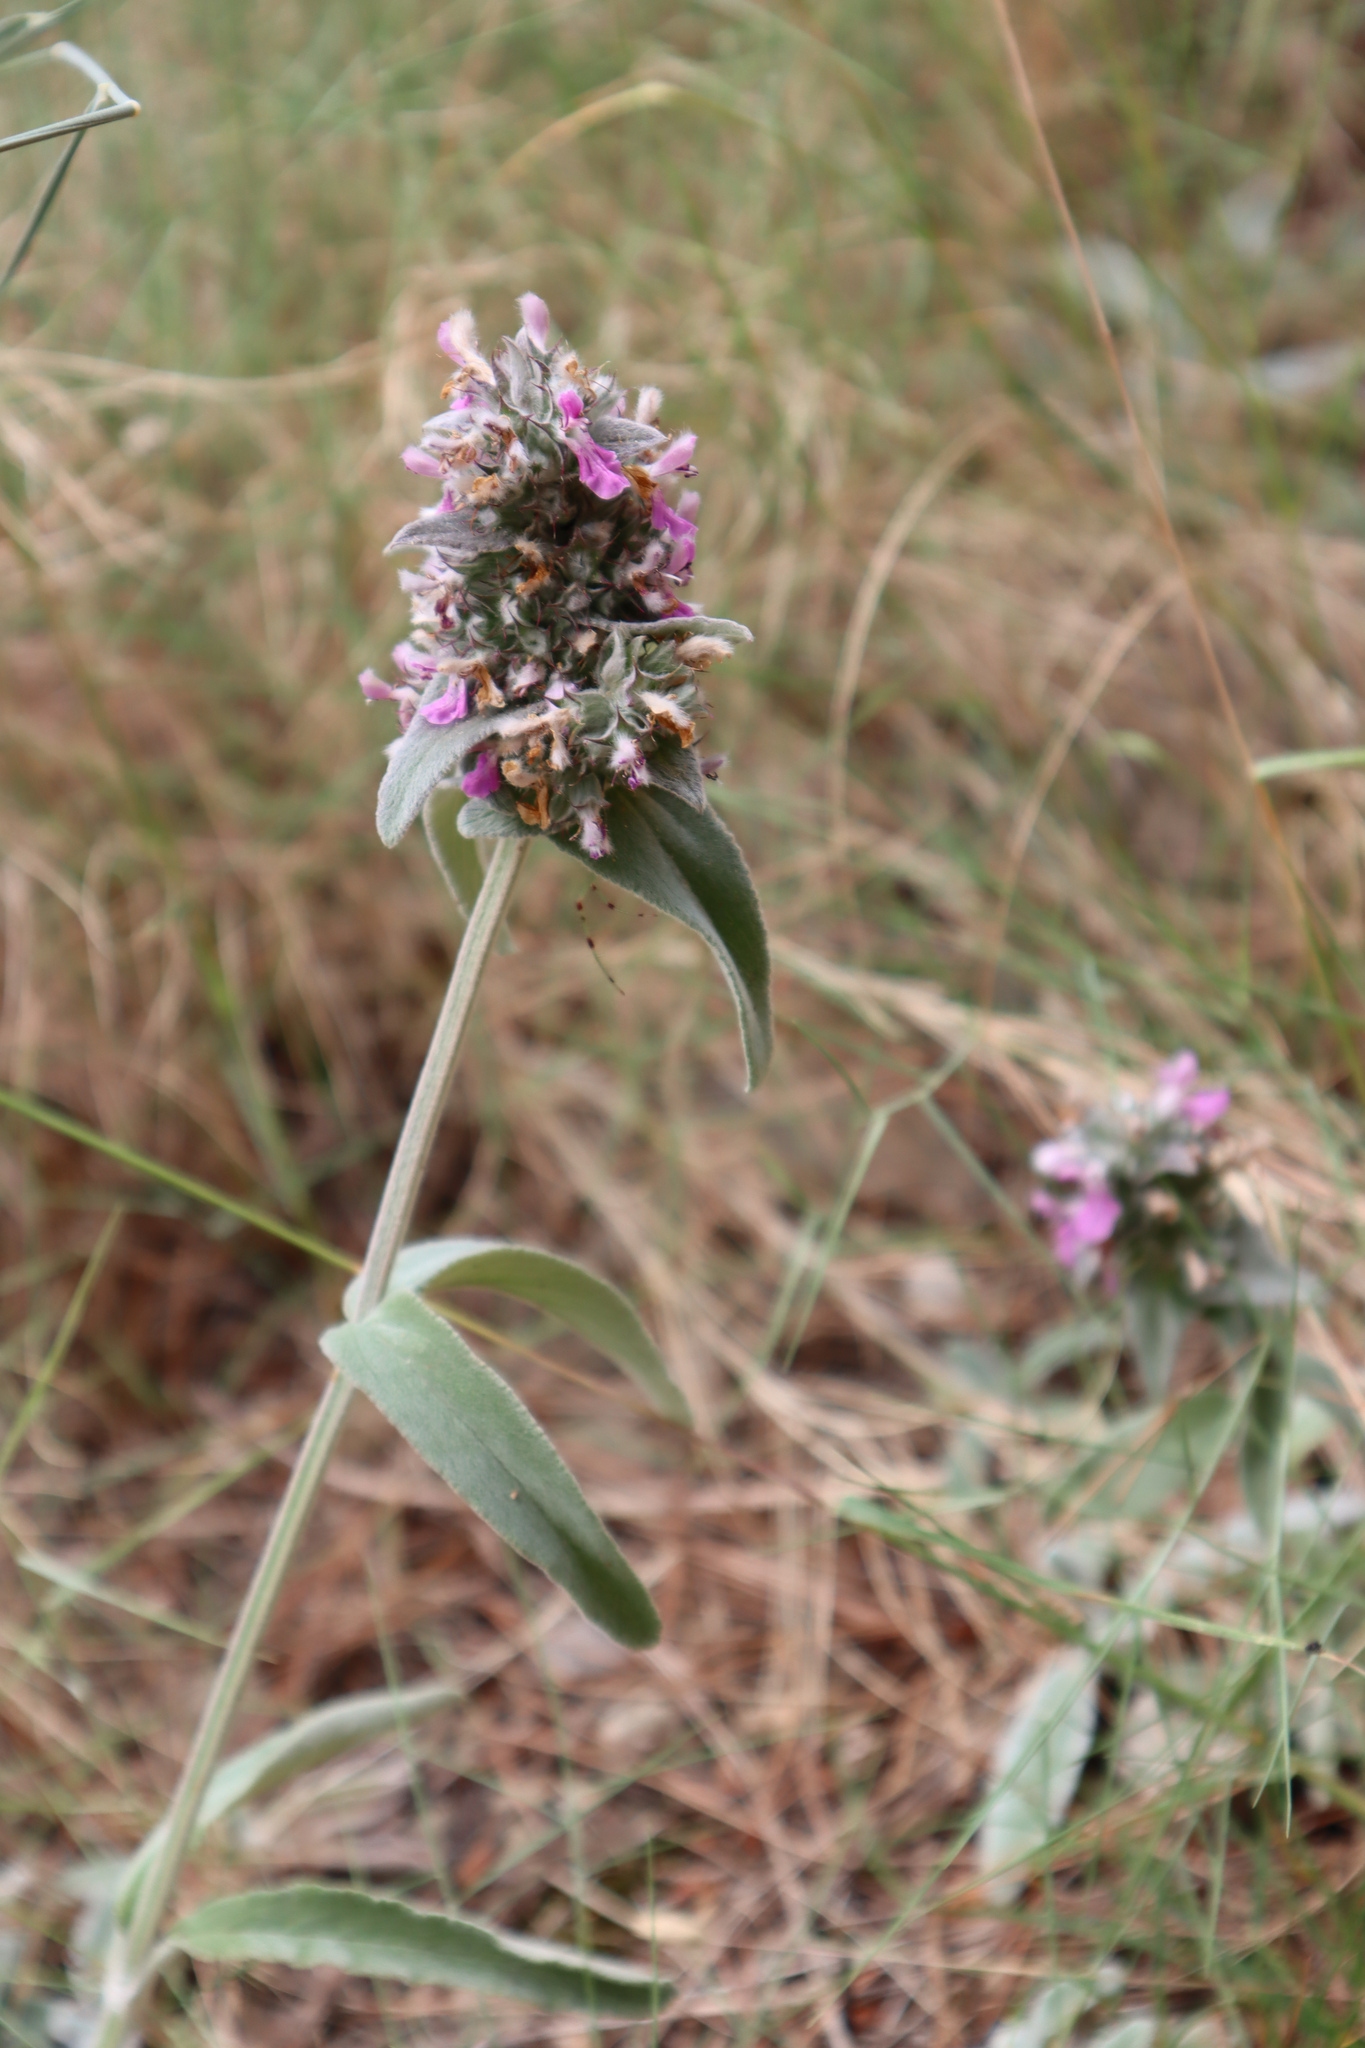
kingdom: Plantae
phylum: Tracheophyta
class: Magnoliopsida
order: Lamiales
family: Lamiaceae
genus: Stachys
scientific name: Stachys cretica
